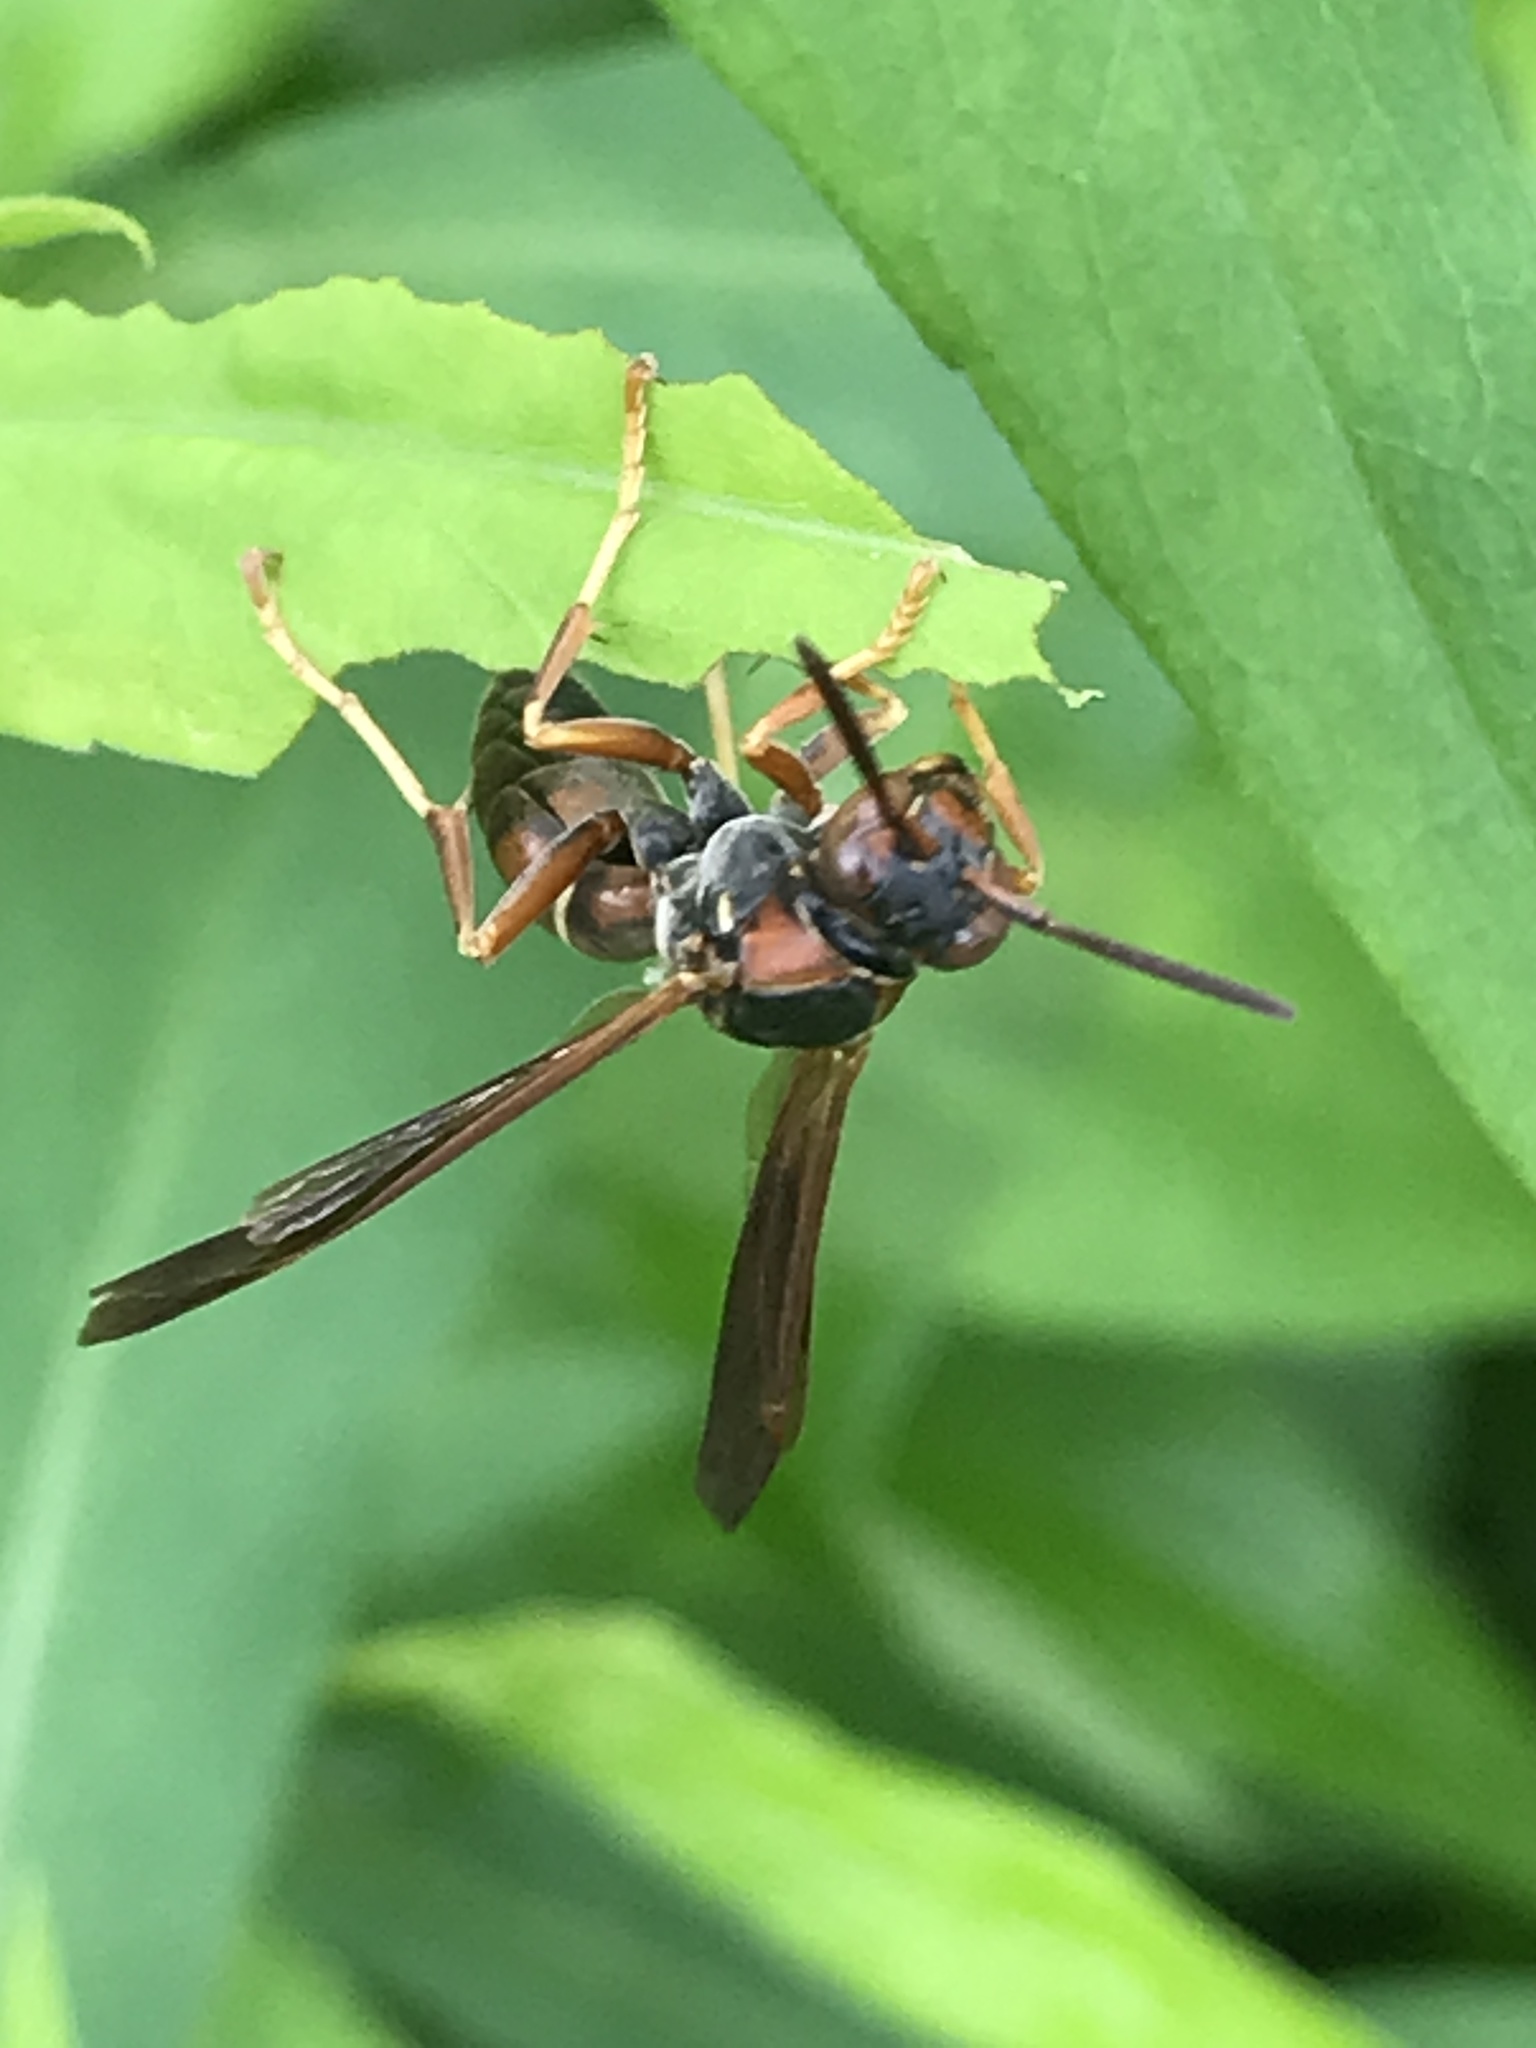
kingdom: Animalia
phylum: Arthropoda
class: Insecta
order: Hymenoptera
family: Eumenidae
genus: Polistes
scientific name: Polistes fuscatus
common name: Dark paper wasp
